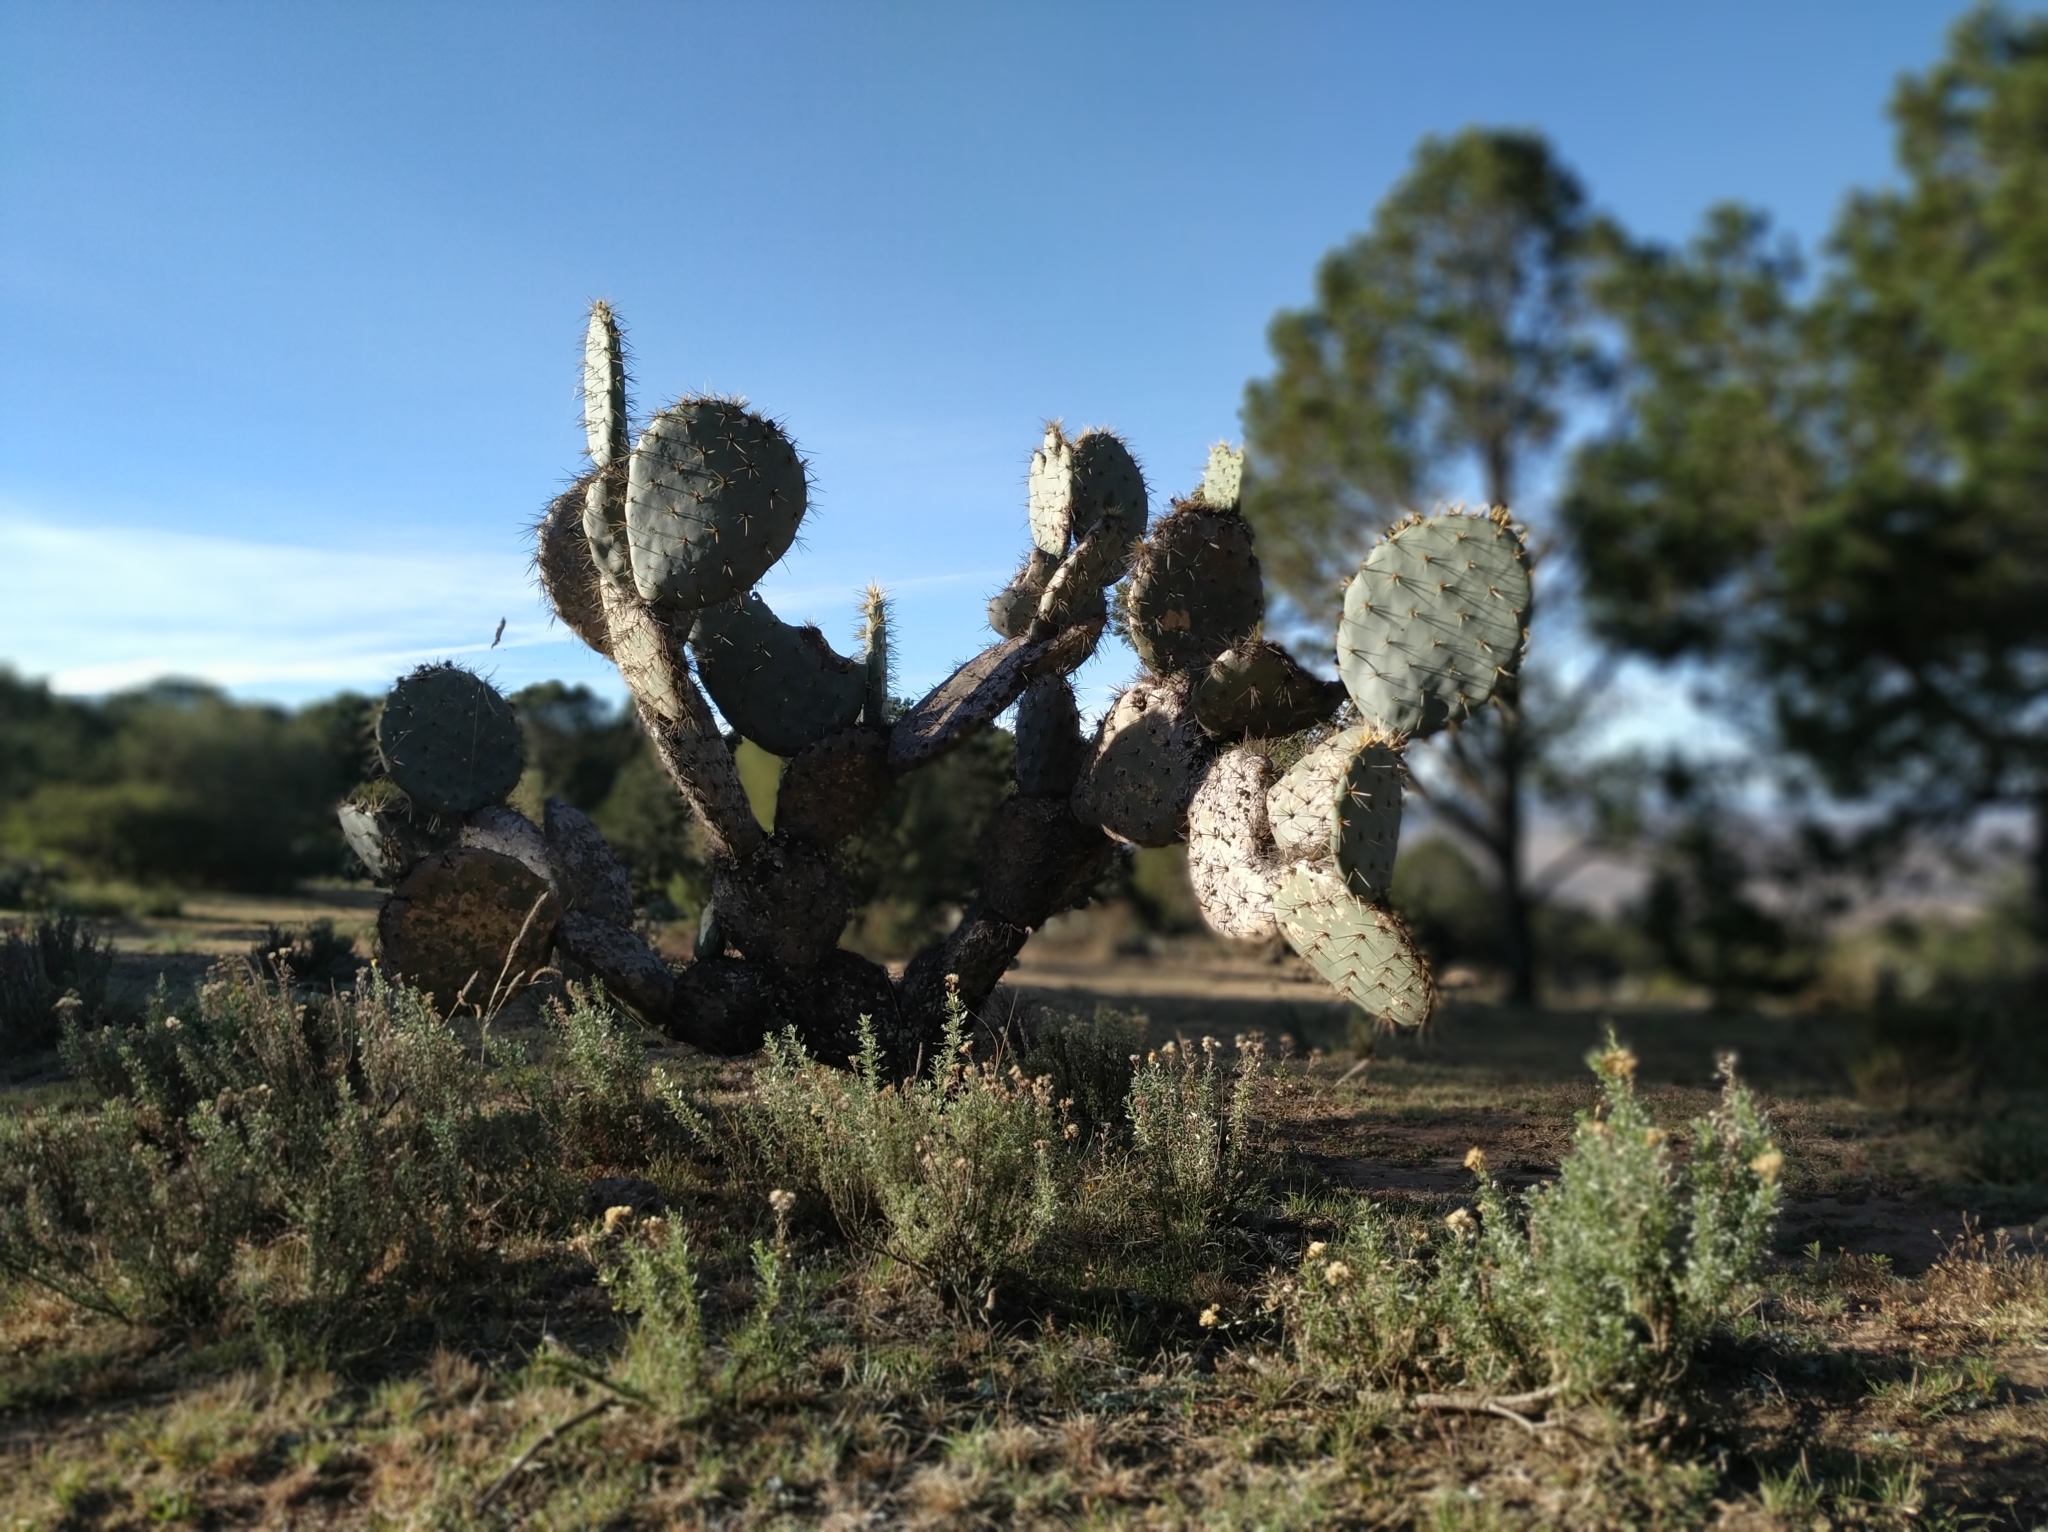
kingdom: Plantae
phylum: Tracheophyta
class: Magnoliopsida
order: Caryophyllales
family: Cactaceae
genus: Opuntia
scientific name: Opuntia robusta
